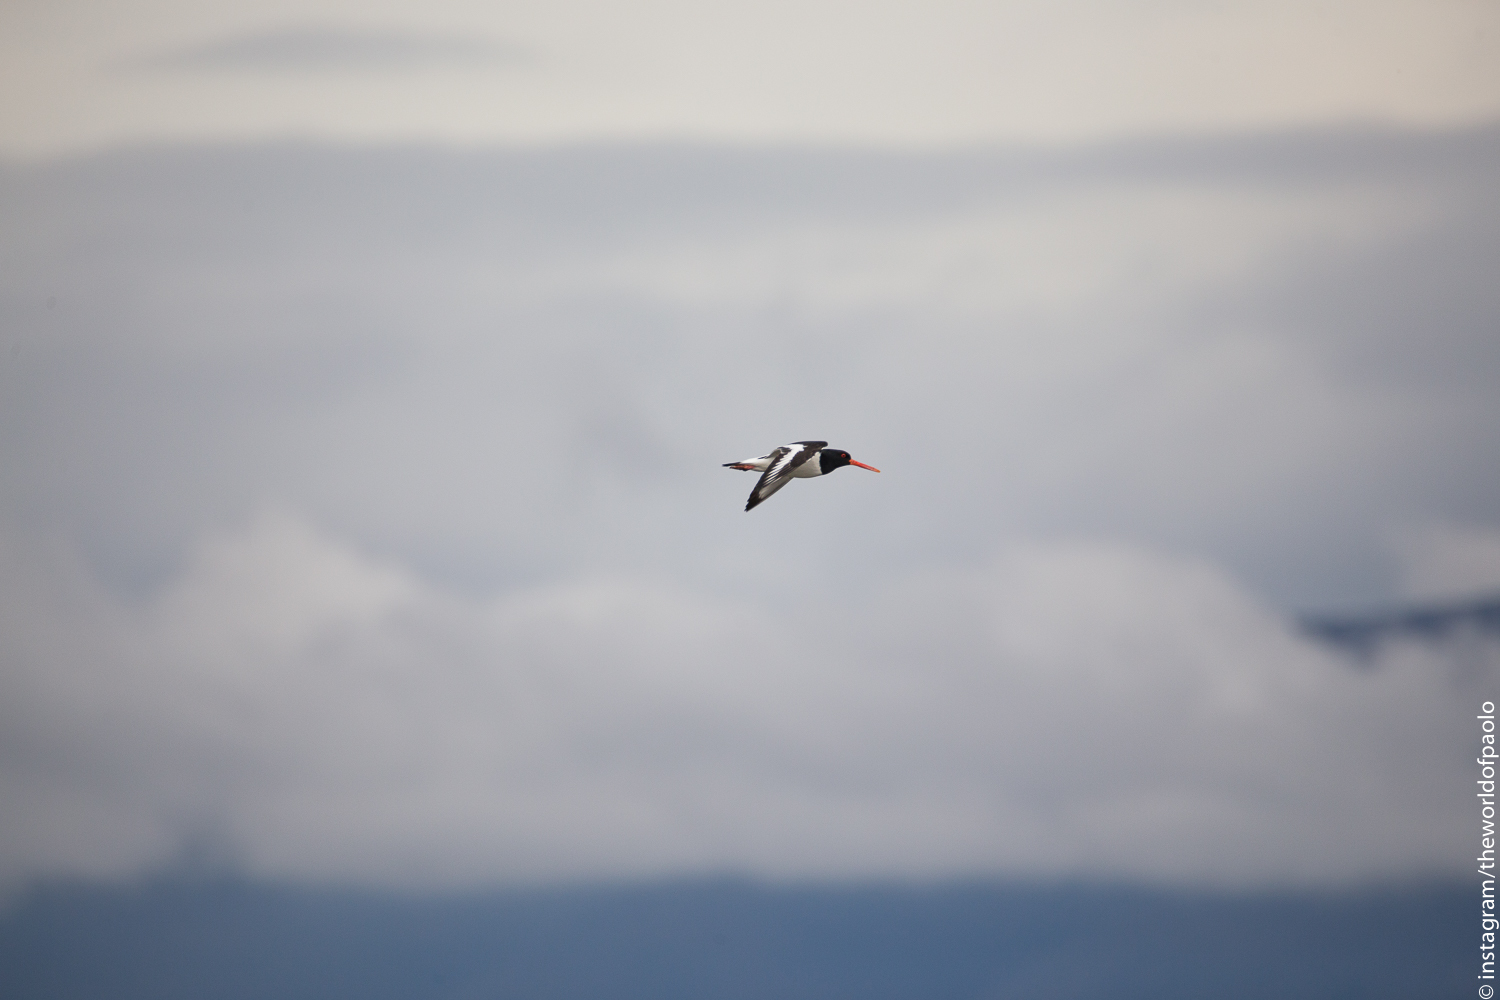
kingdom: Animalia
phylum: Chordata
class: Aves
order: Charadriiformes
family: Haematopodidae
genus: Haematopus
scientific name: Haematopus ostralegus
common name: Eurasian oystercatcher
